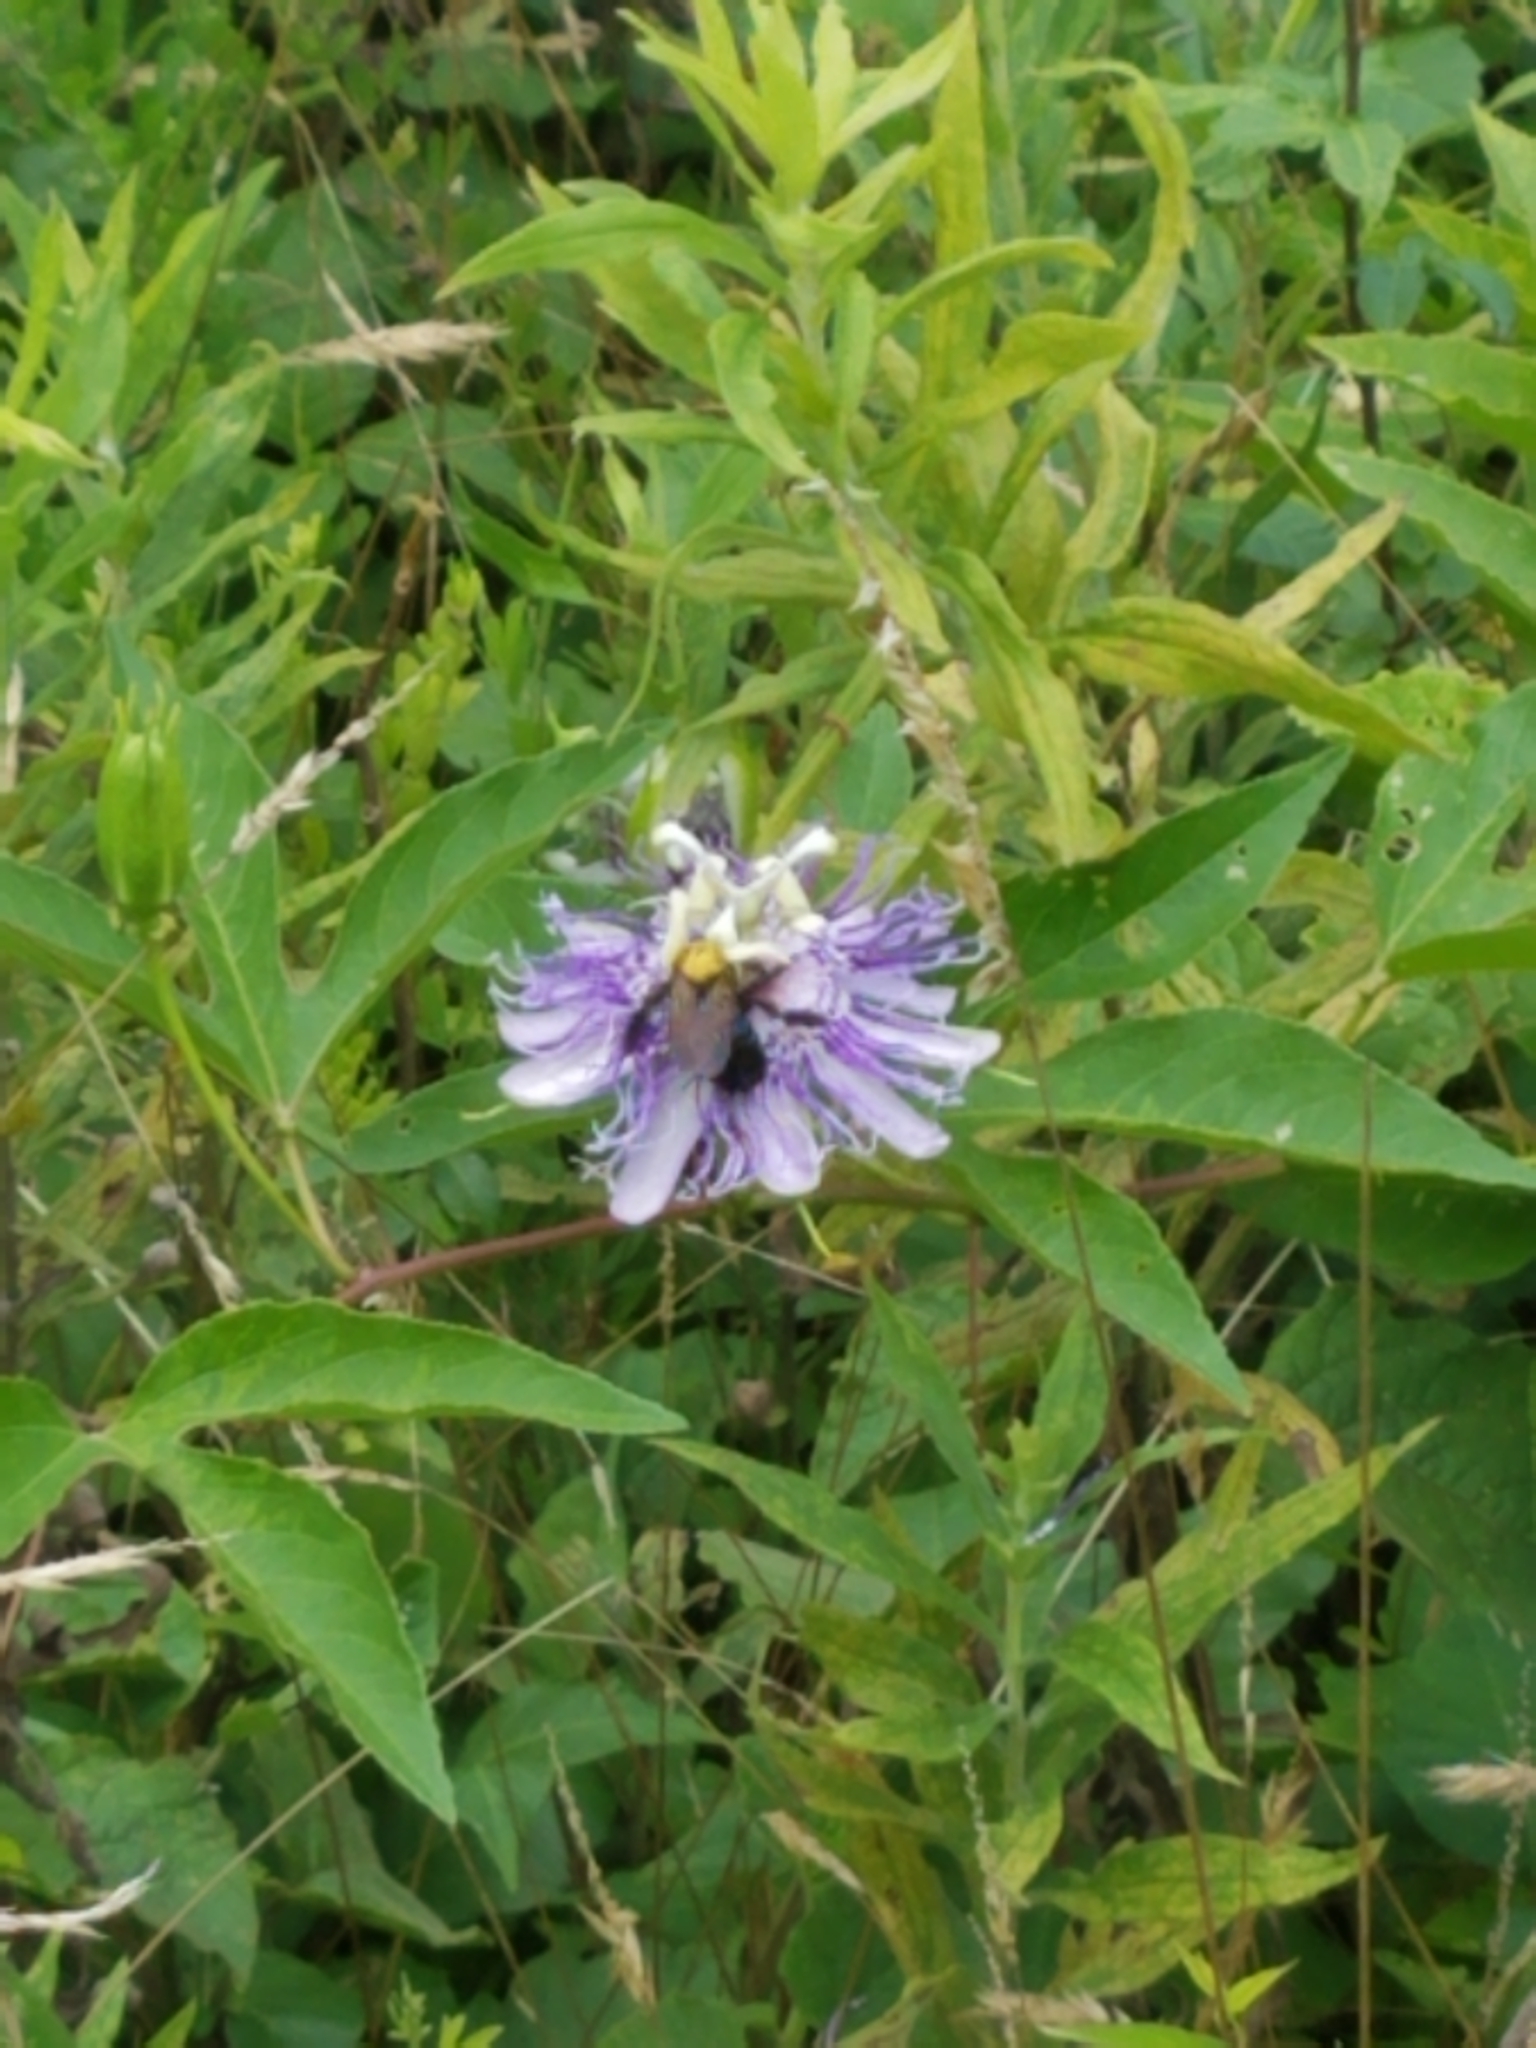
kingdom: Plantae
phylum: Tracheophyta
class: Magnoliopsida
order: Malpighiales
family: Passifloraceae
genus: Passiflora
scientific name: Passiflora incarnata
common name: Apricot-vine
